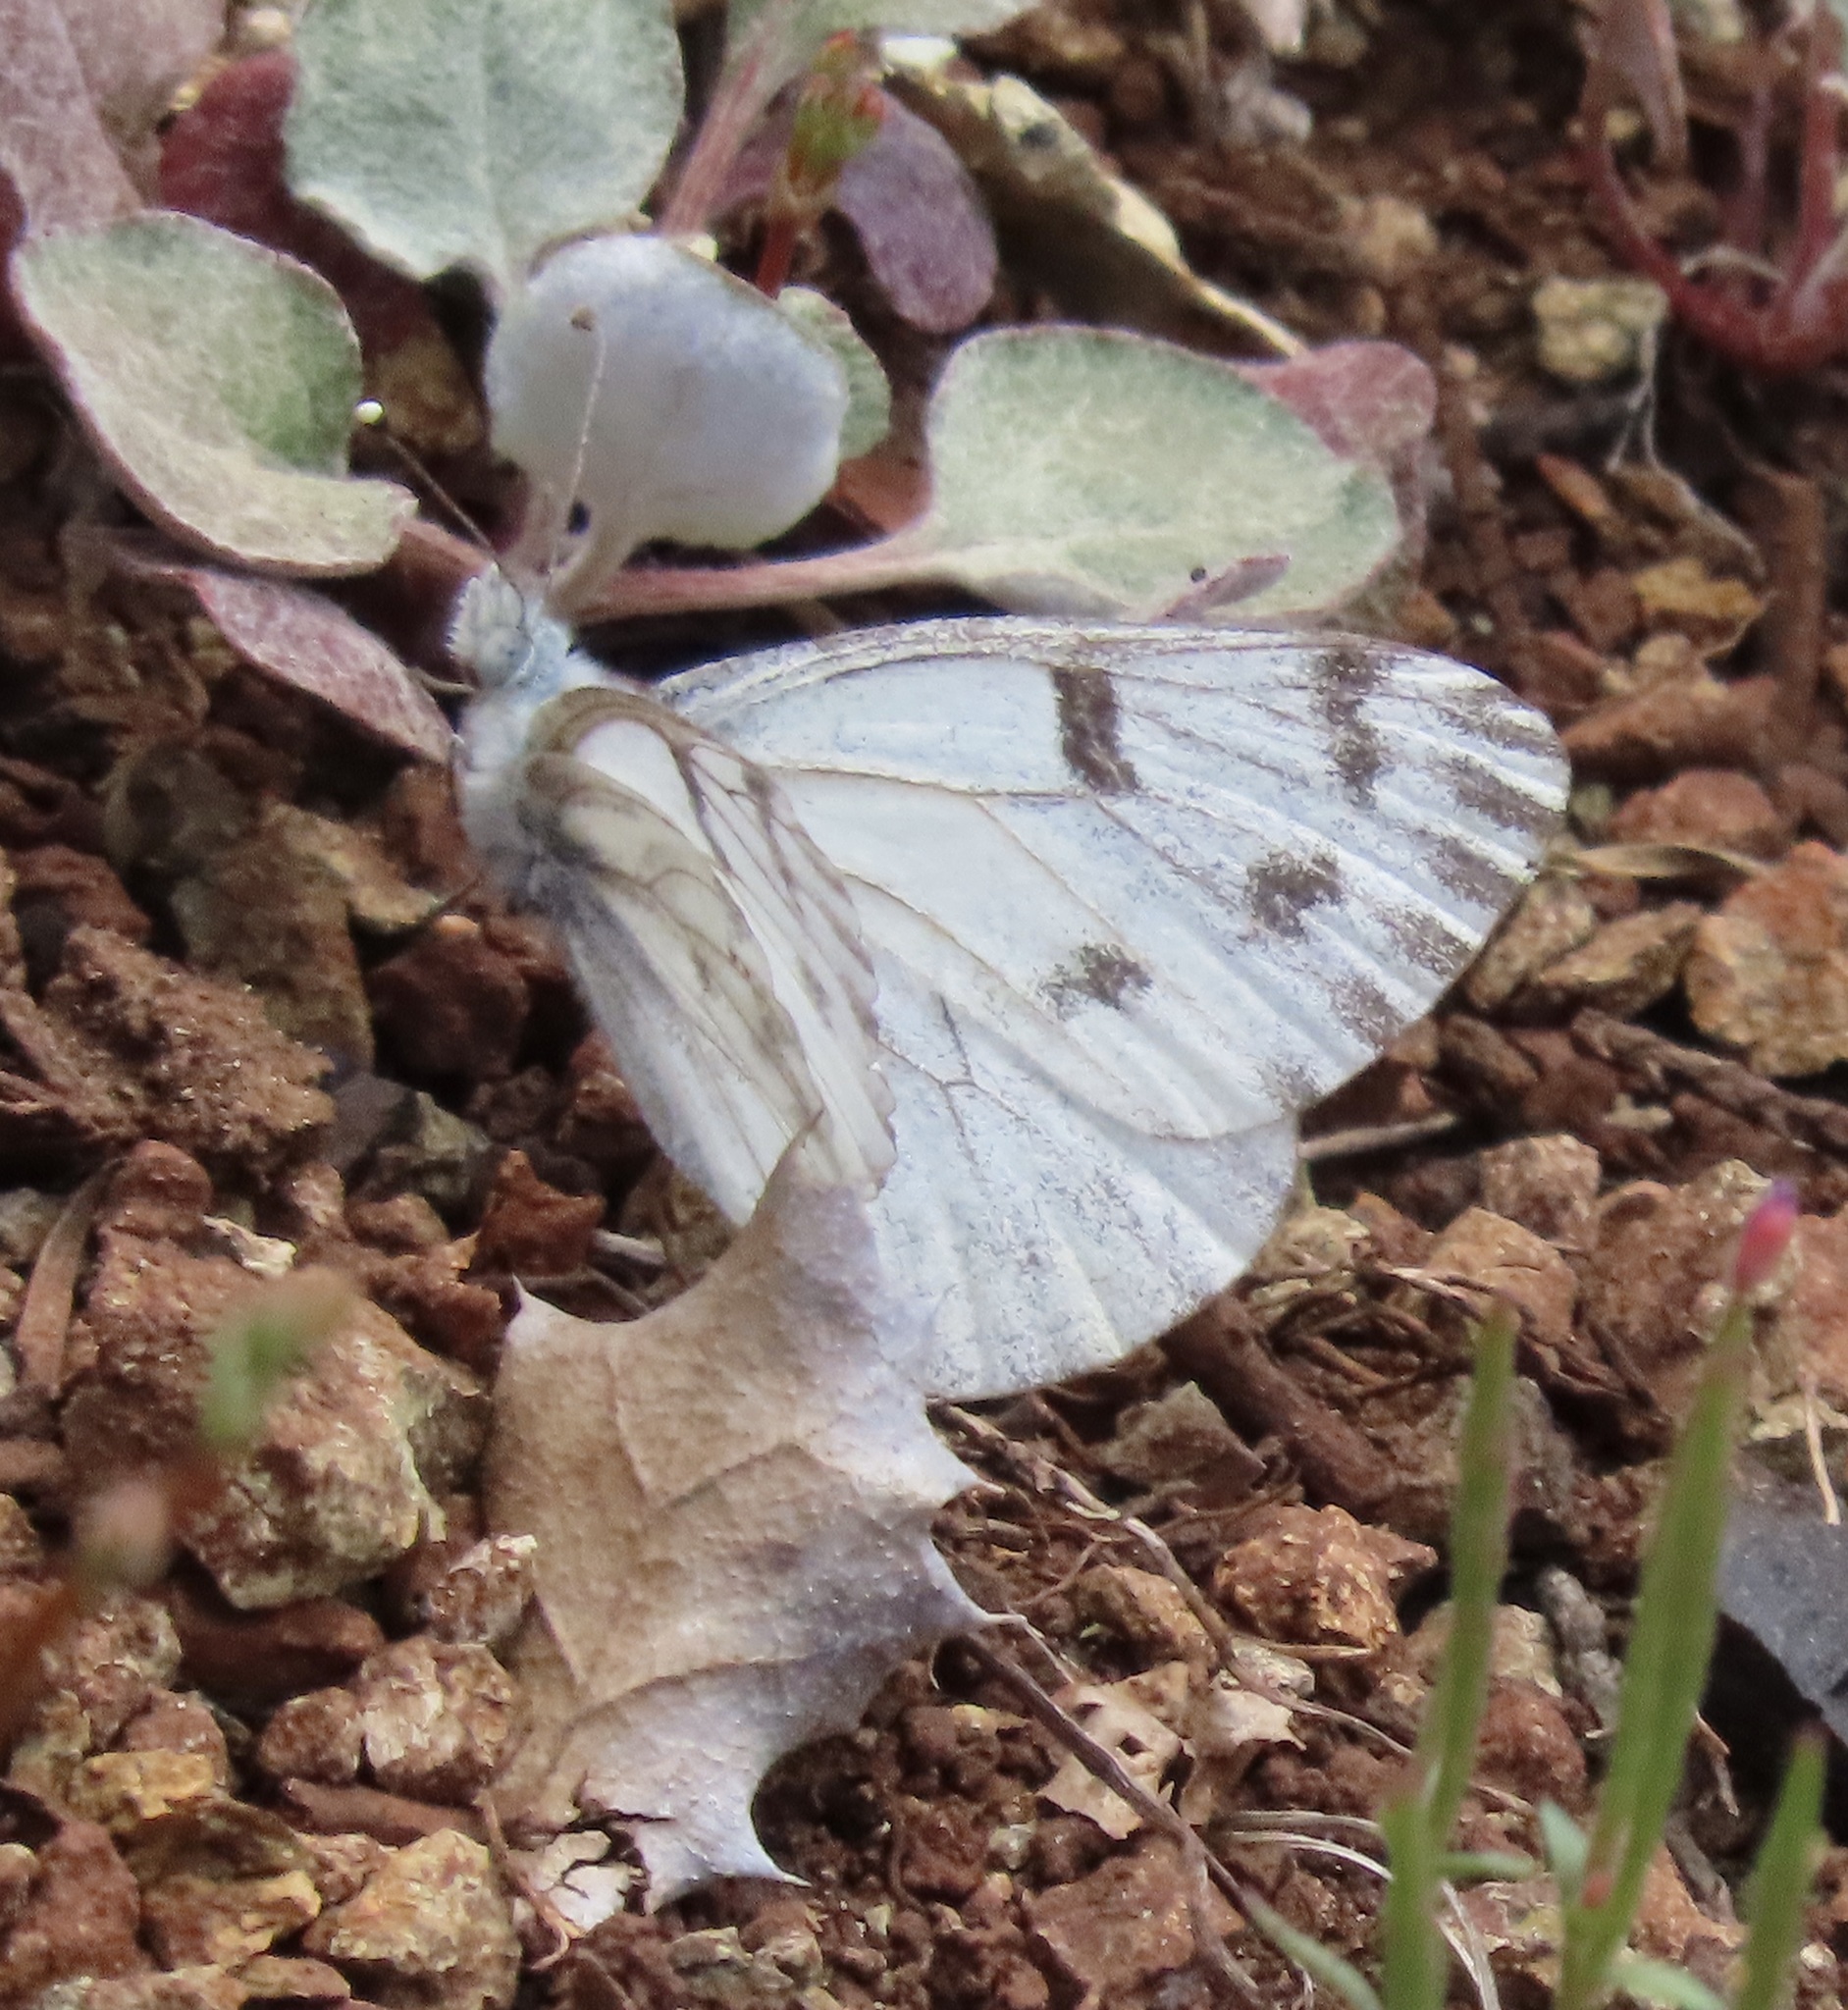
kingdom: Animalia
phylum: Arthropoda
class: Insecta
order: Lepidoptera
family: Pieridae
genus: Pontia
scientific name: Pontia sisymbrii
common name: California white
